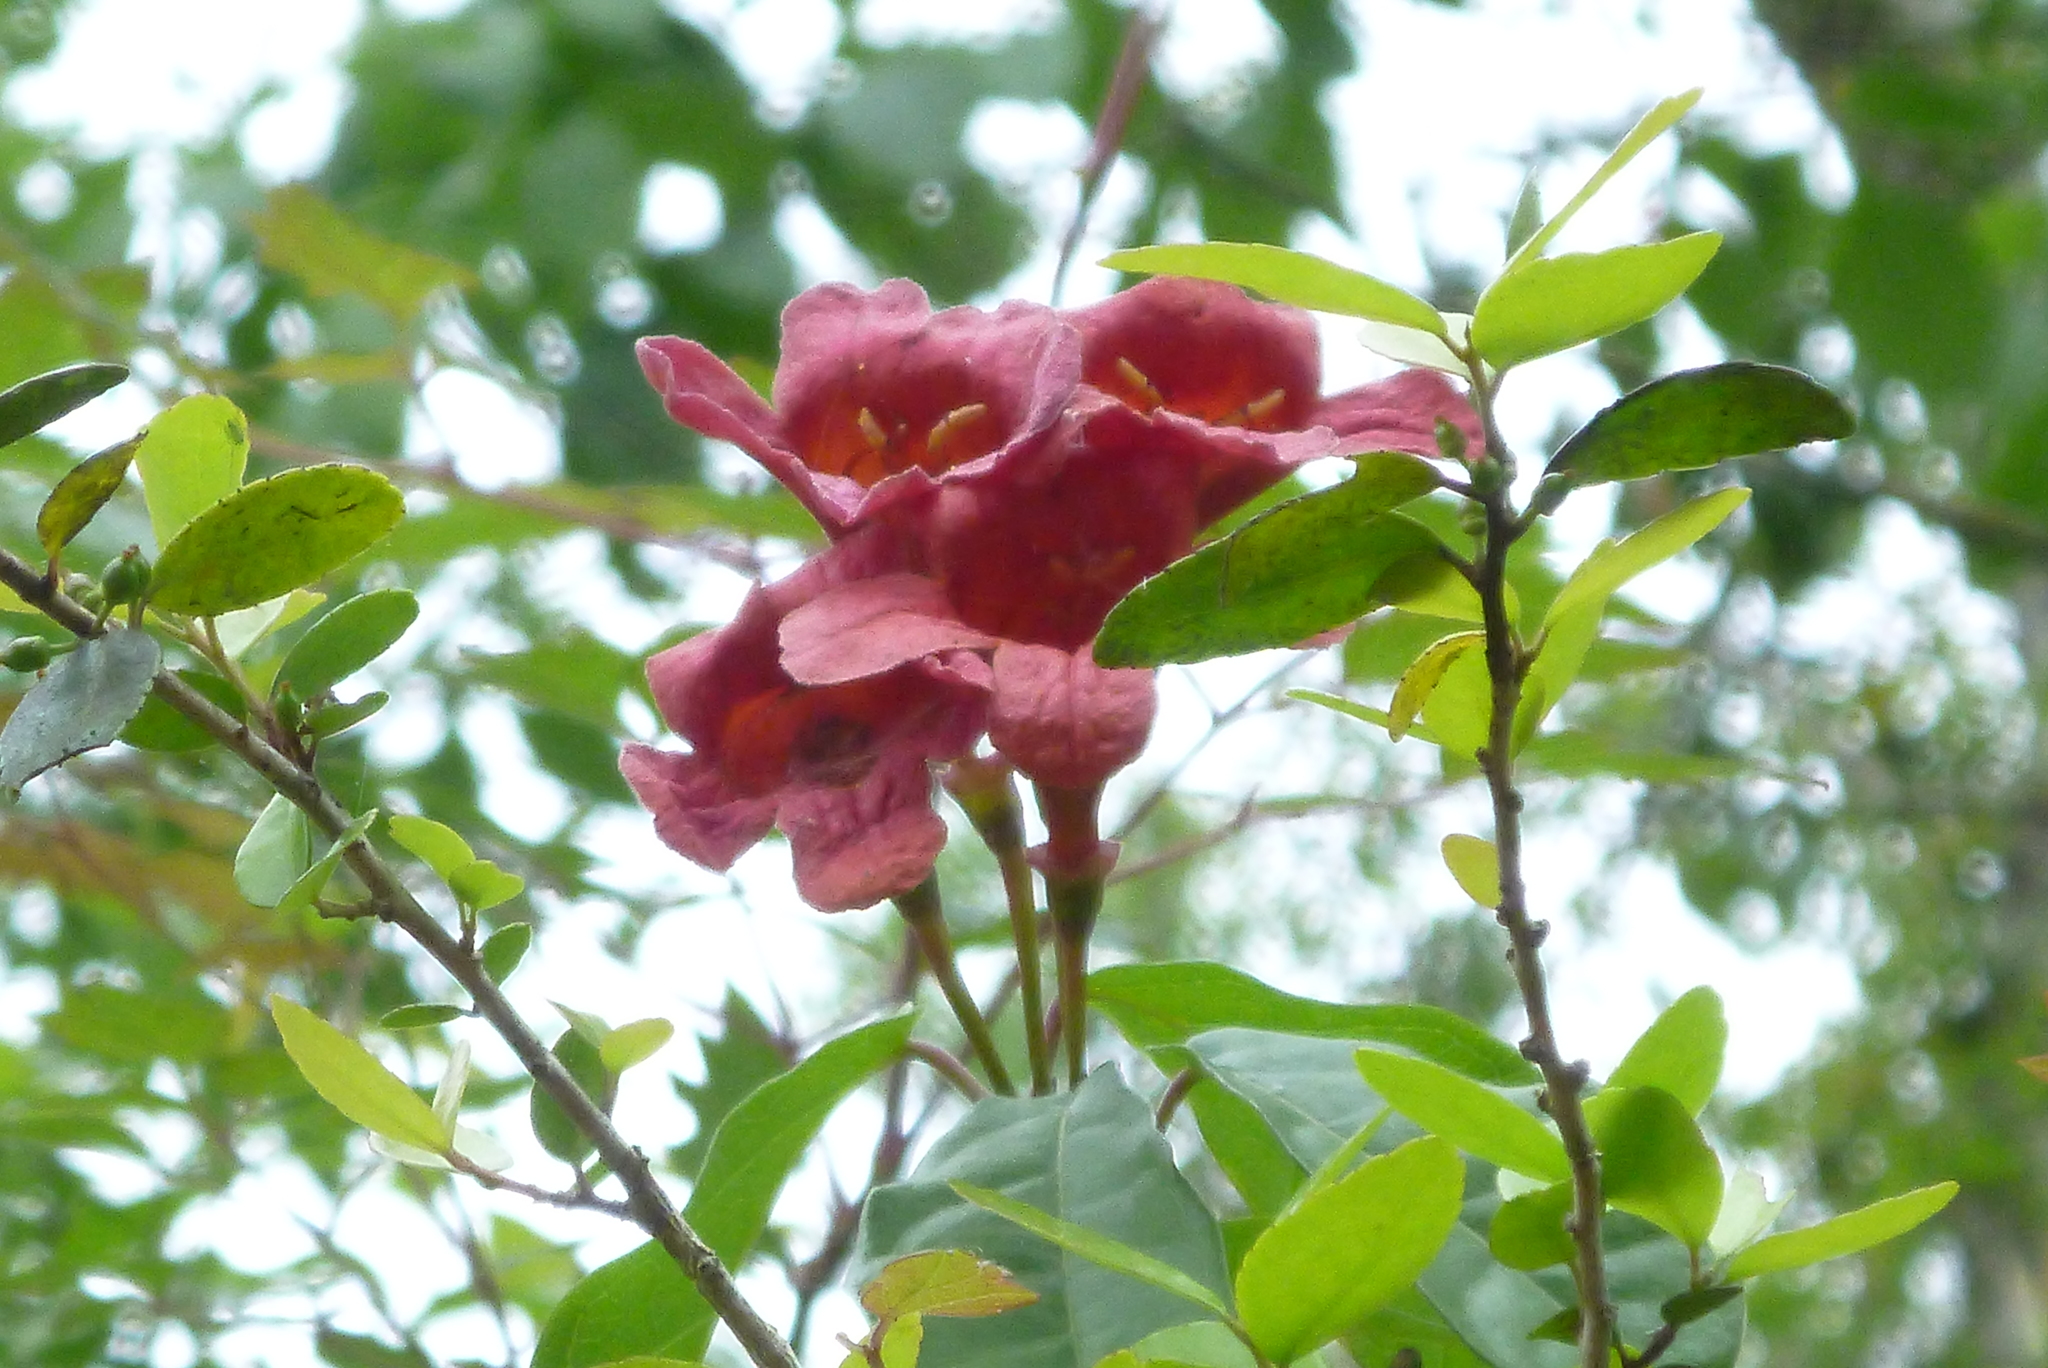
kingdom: Plantae
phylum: Tracheophyta
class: Magnoliopsida
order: Lamiales
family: Bignoniaceae
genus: Bignonia
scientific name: Bignonia capreolata
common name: Crossvine
